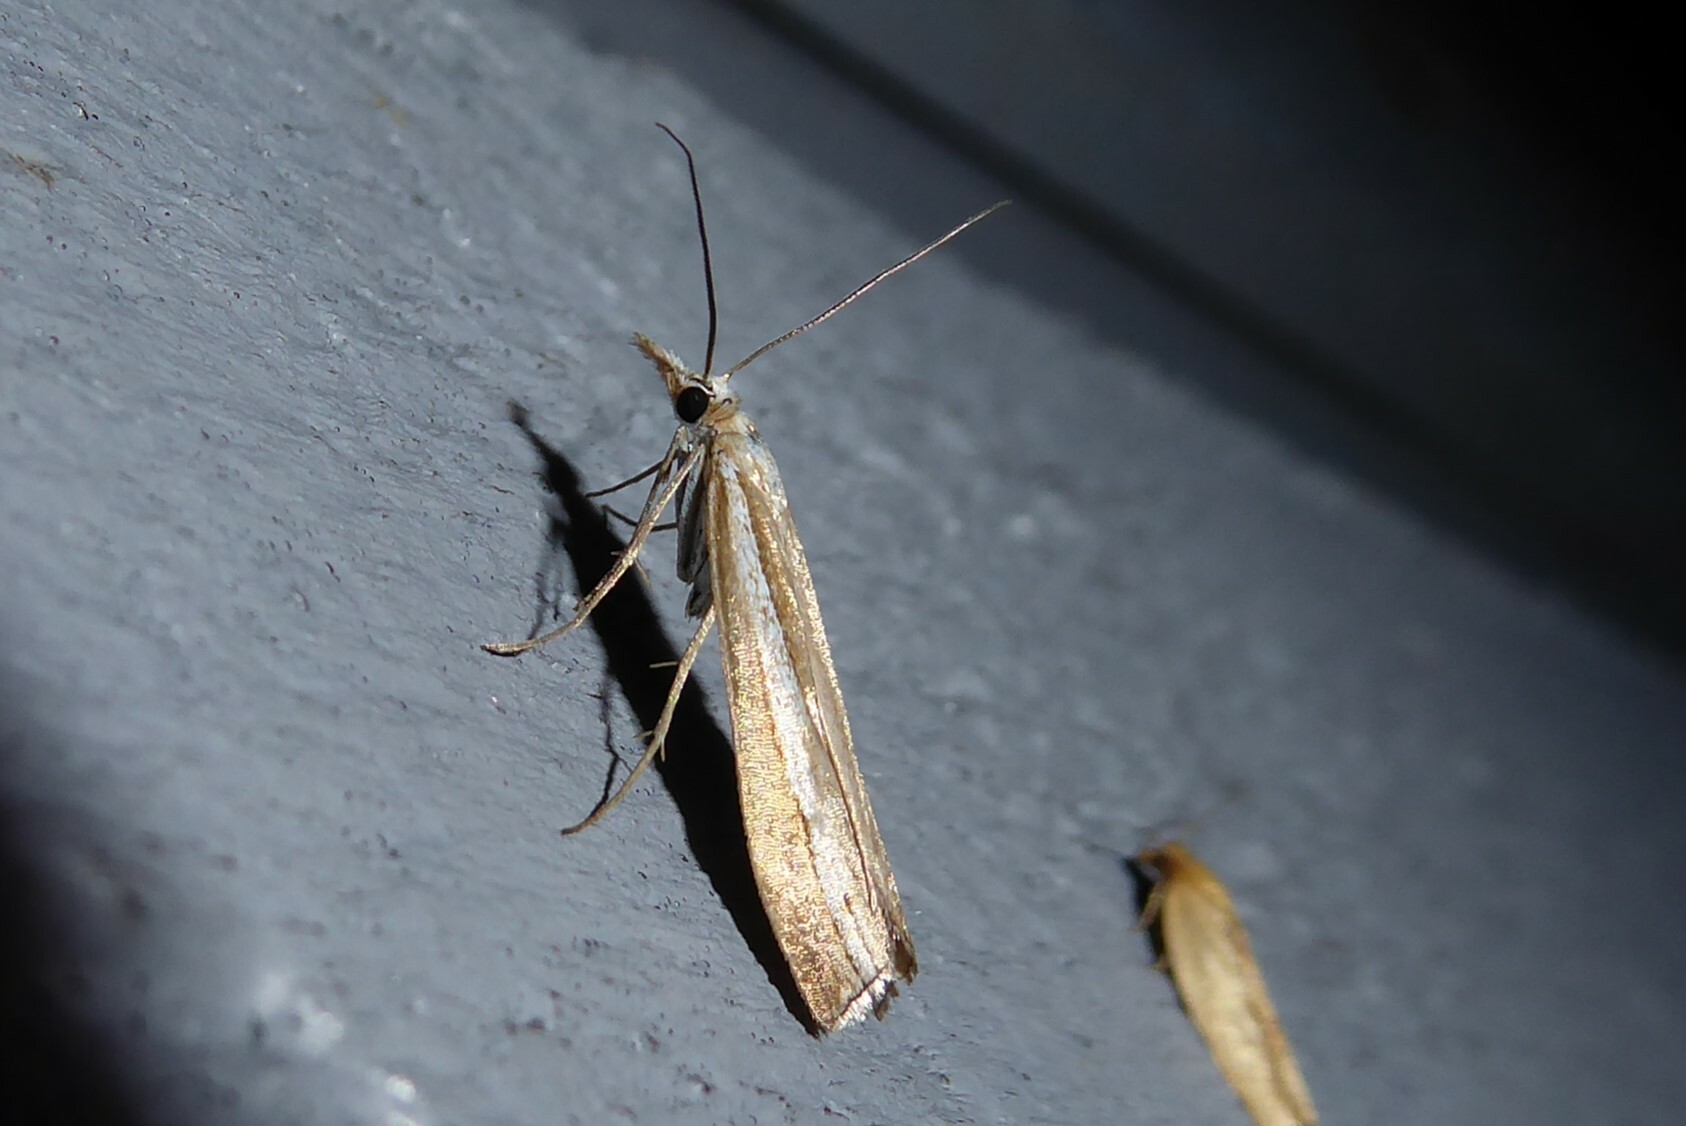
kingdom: Animalia
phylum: Arthropoda
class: Insecta
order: Lepidoptera
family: Crambidae
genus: Orocrambus
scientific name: Orocrambus vittellus
